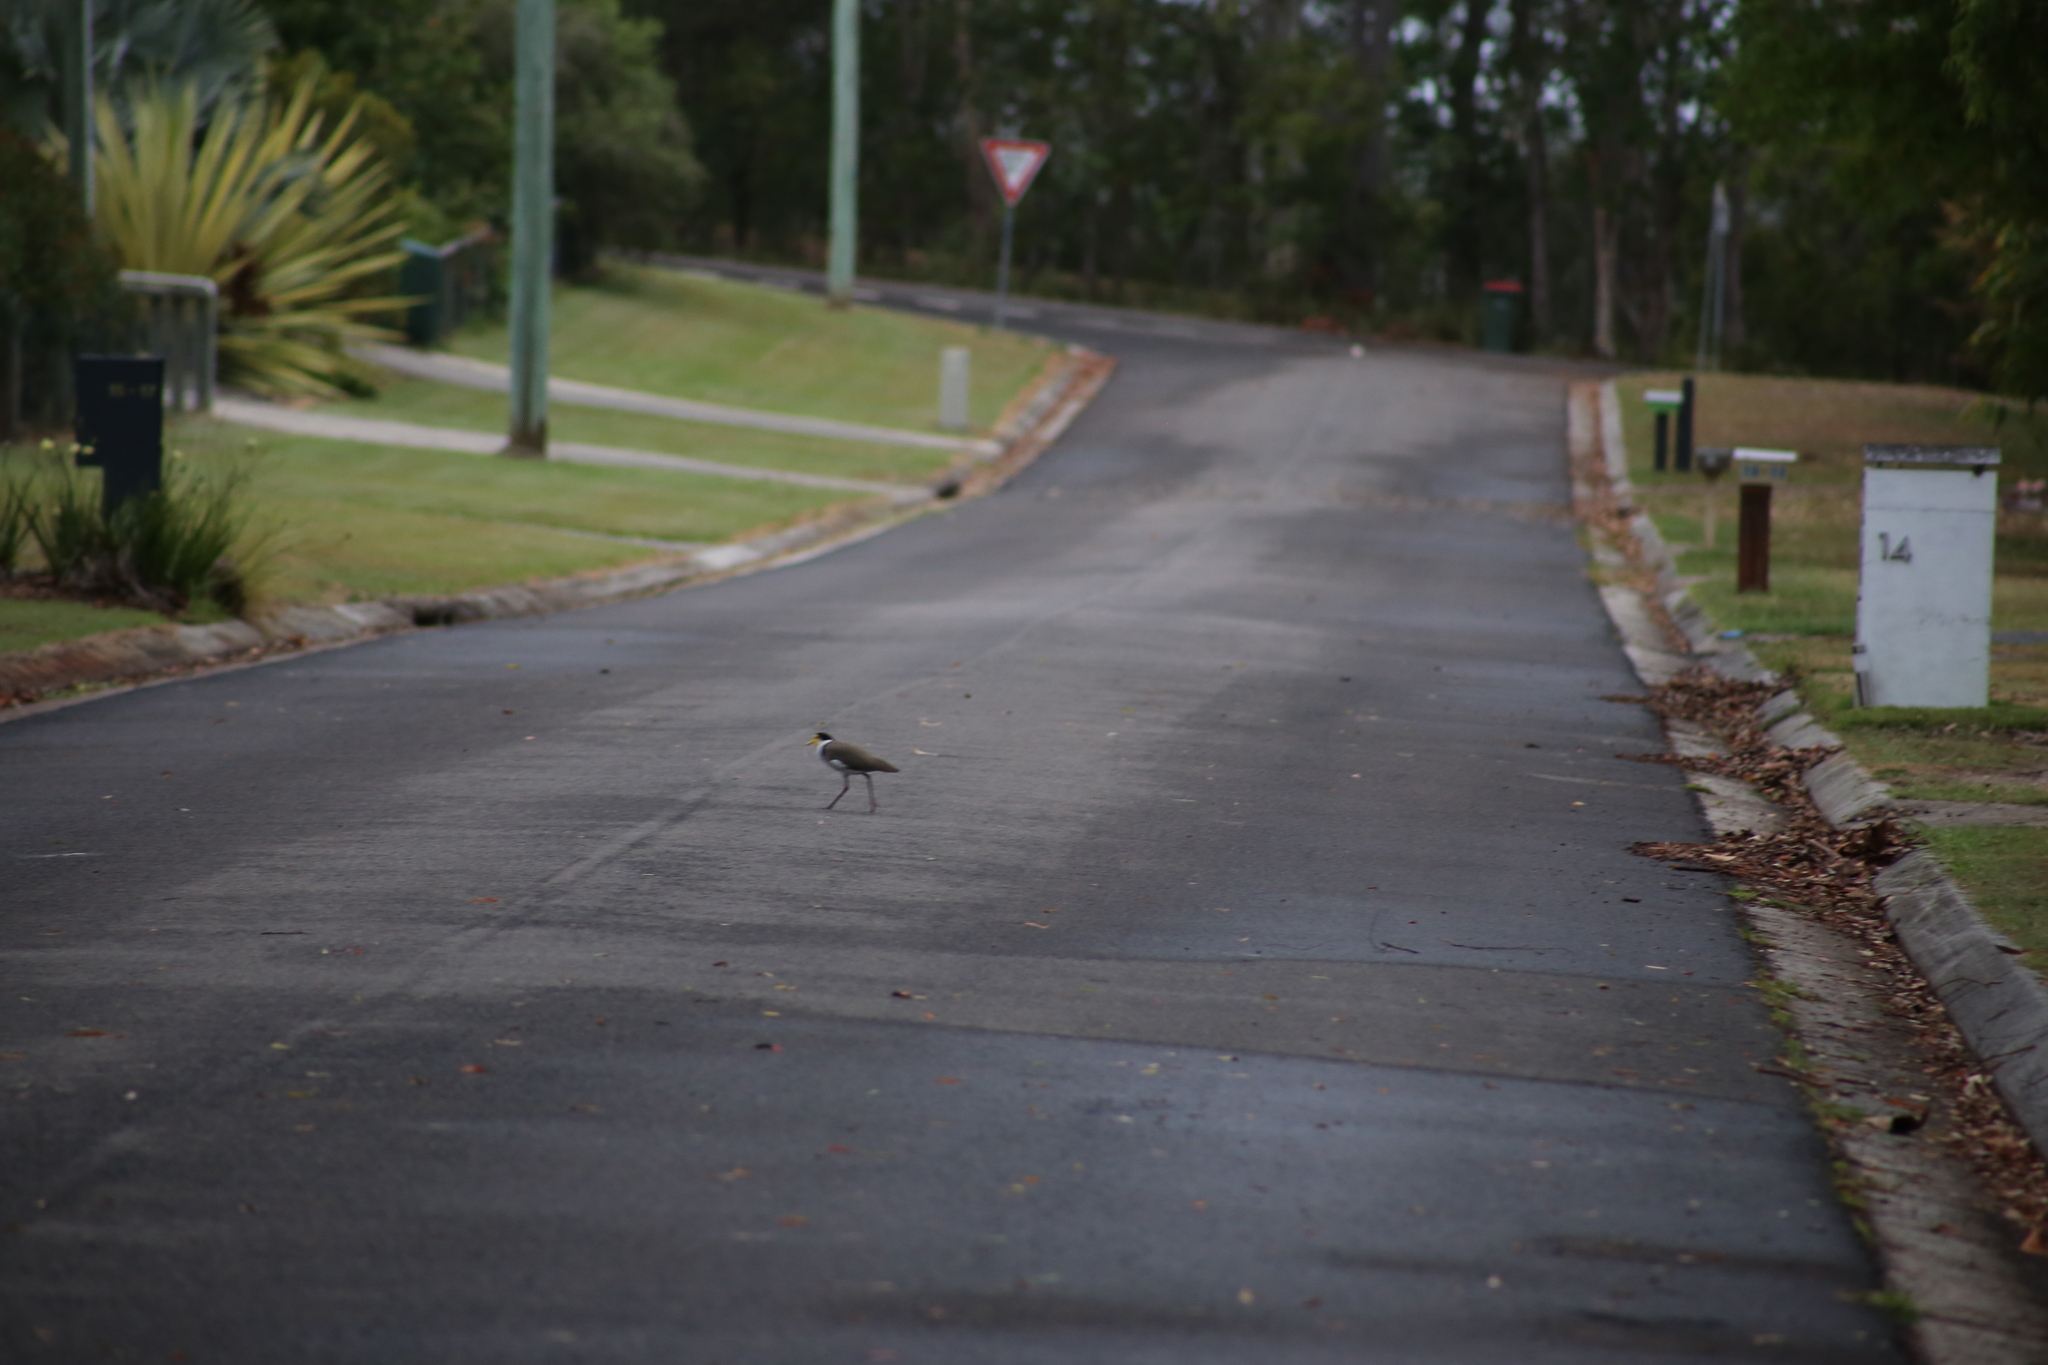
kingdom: Animalia
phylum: Chordata
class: Aves
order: Charadriiformes
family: Charadriidae
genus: Vanellus
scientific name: Vanellus miles
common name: Masked lapwing
